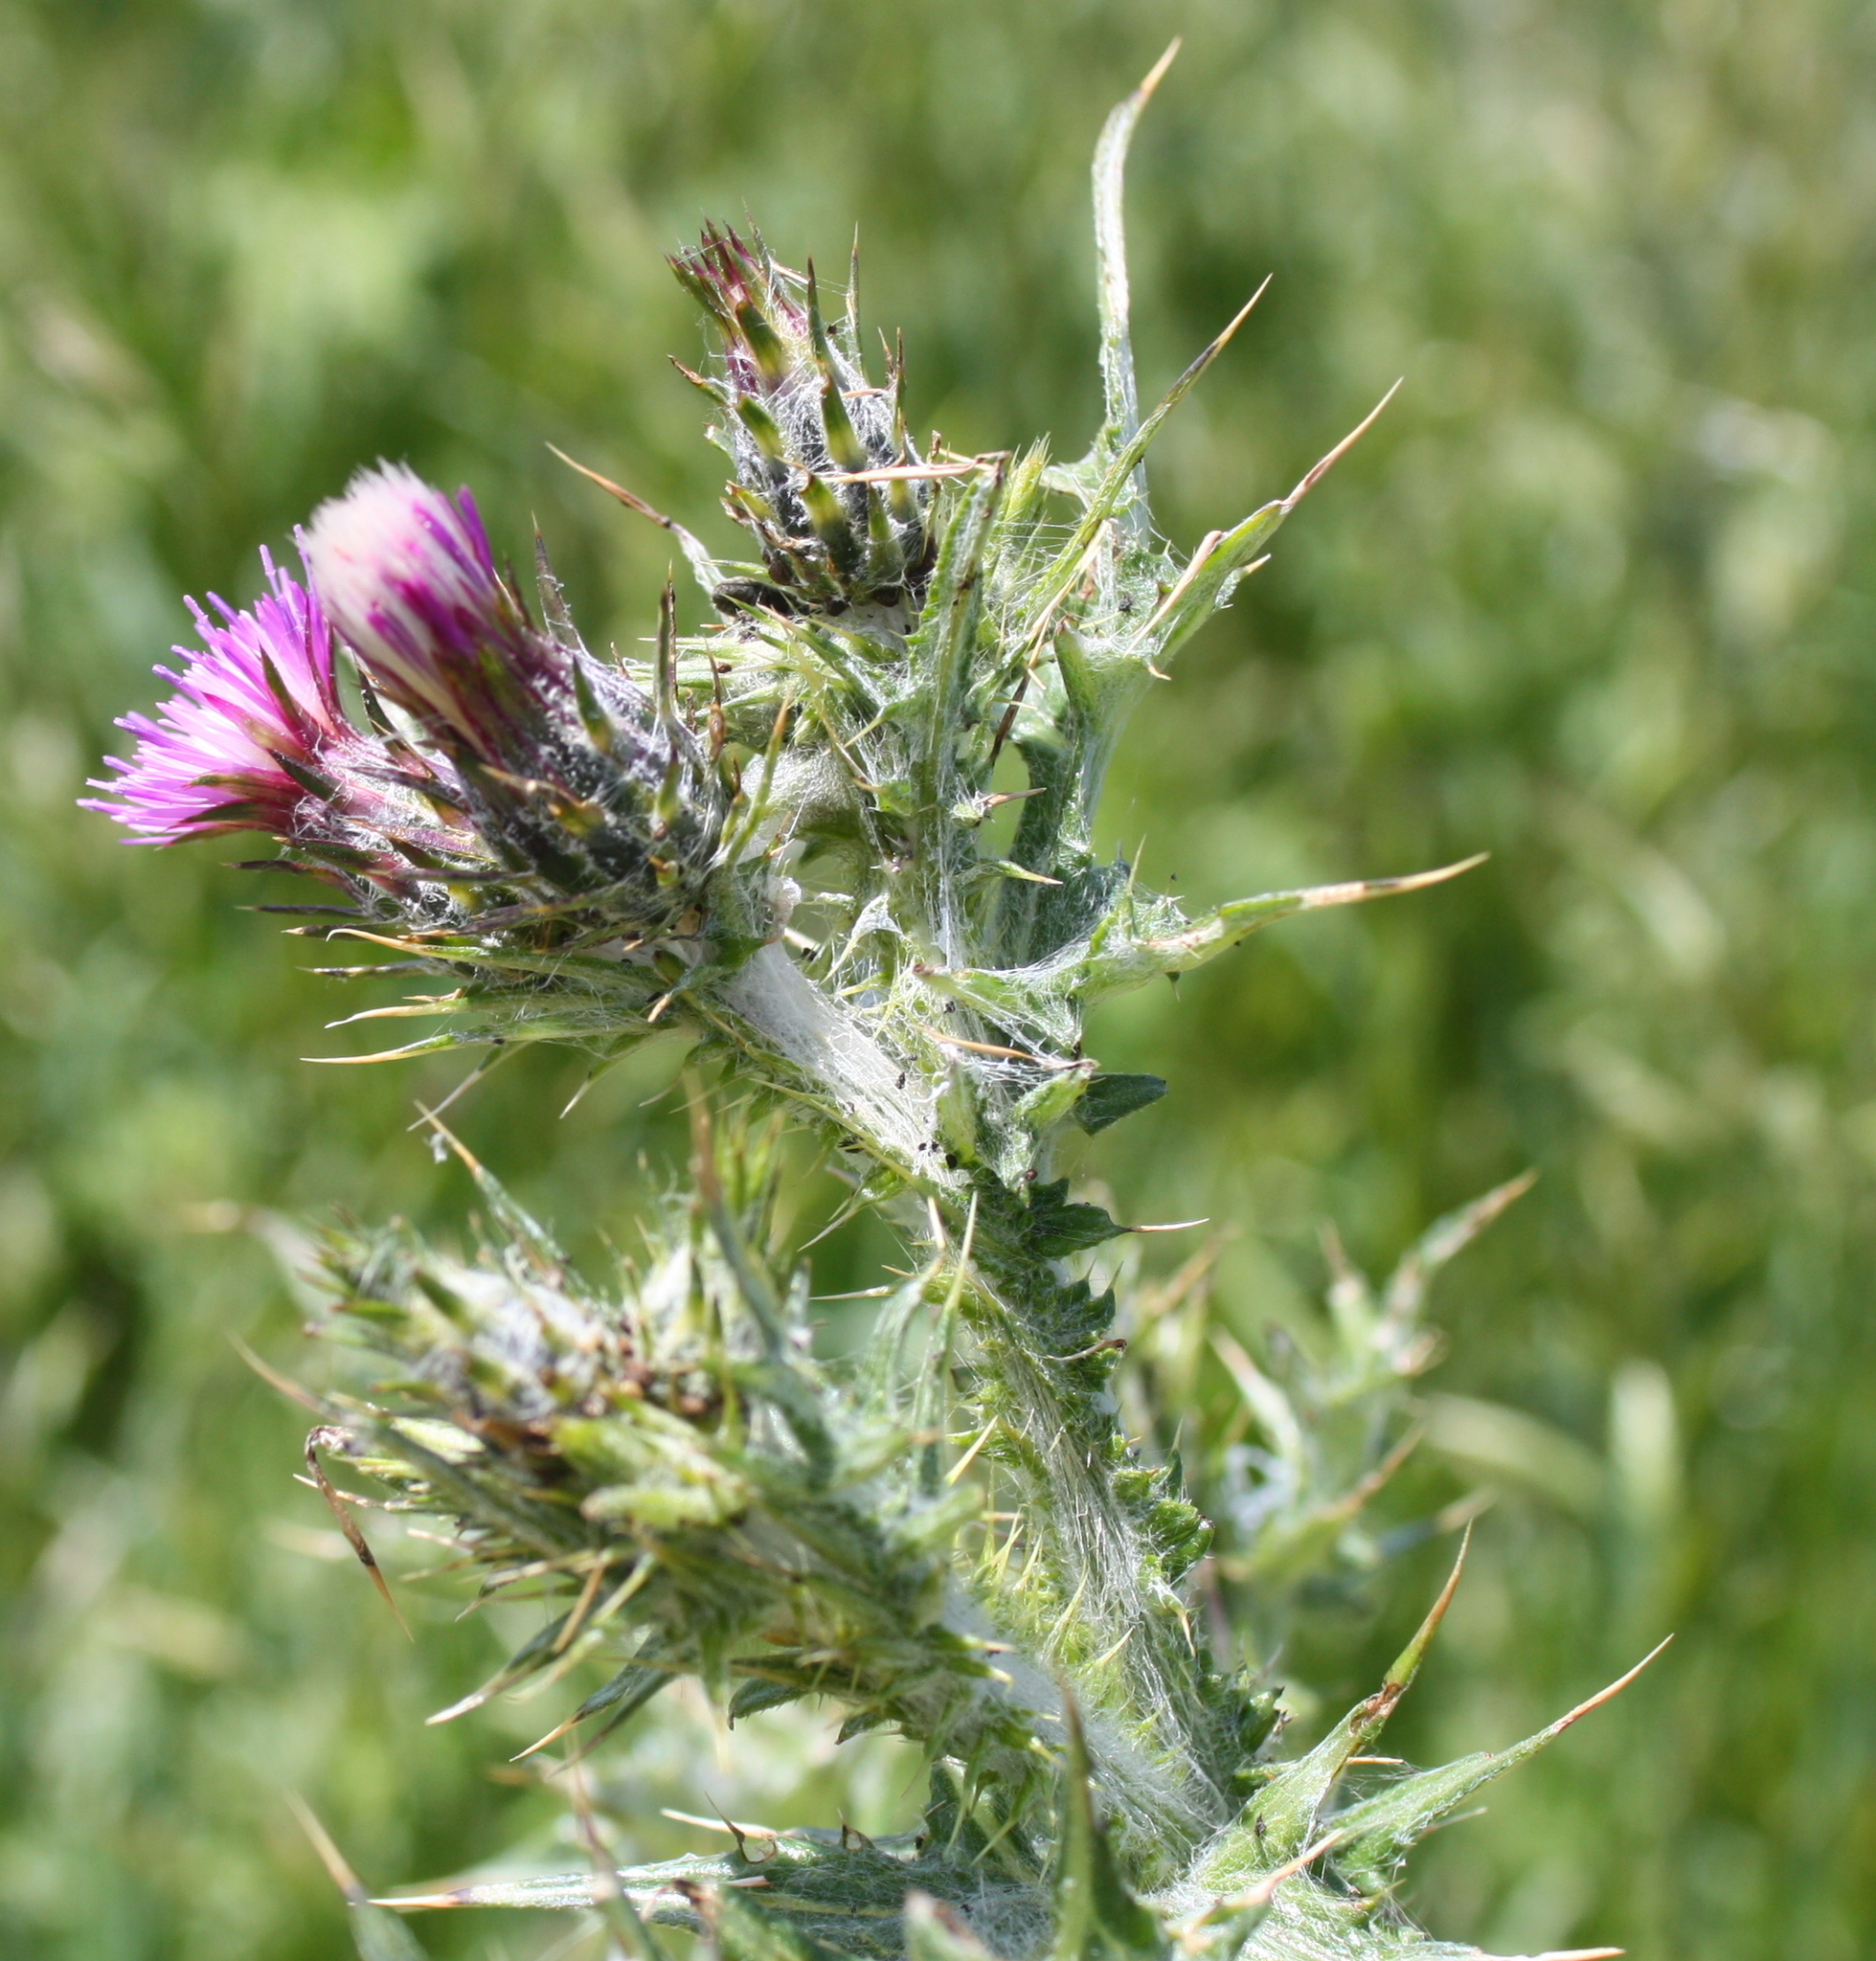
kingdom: Plantae
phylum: Tracheophyta
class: Magnoliopsida
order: Asterales
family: Asteraceae
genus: Carduus
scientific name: Carduus pycnocephalus
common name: Plymouth thistle
